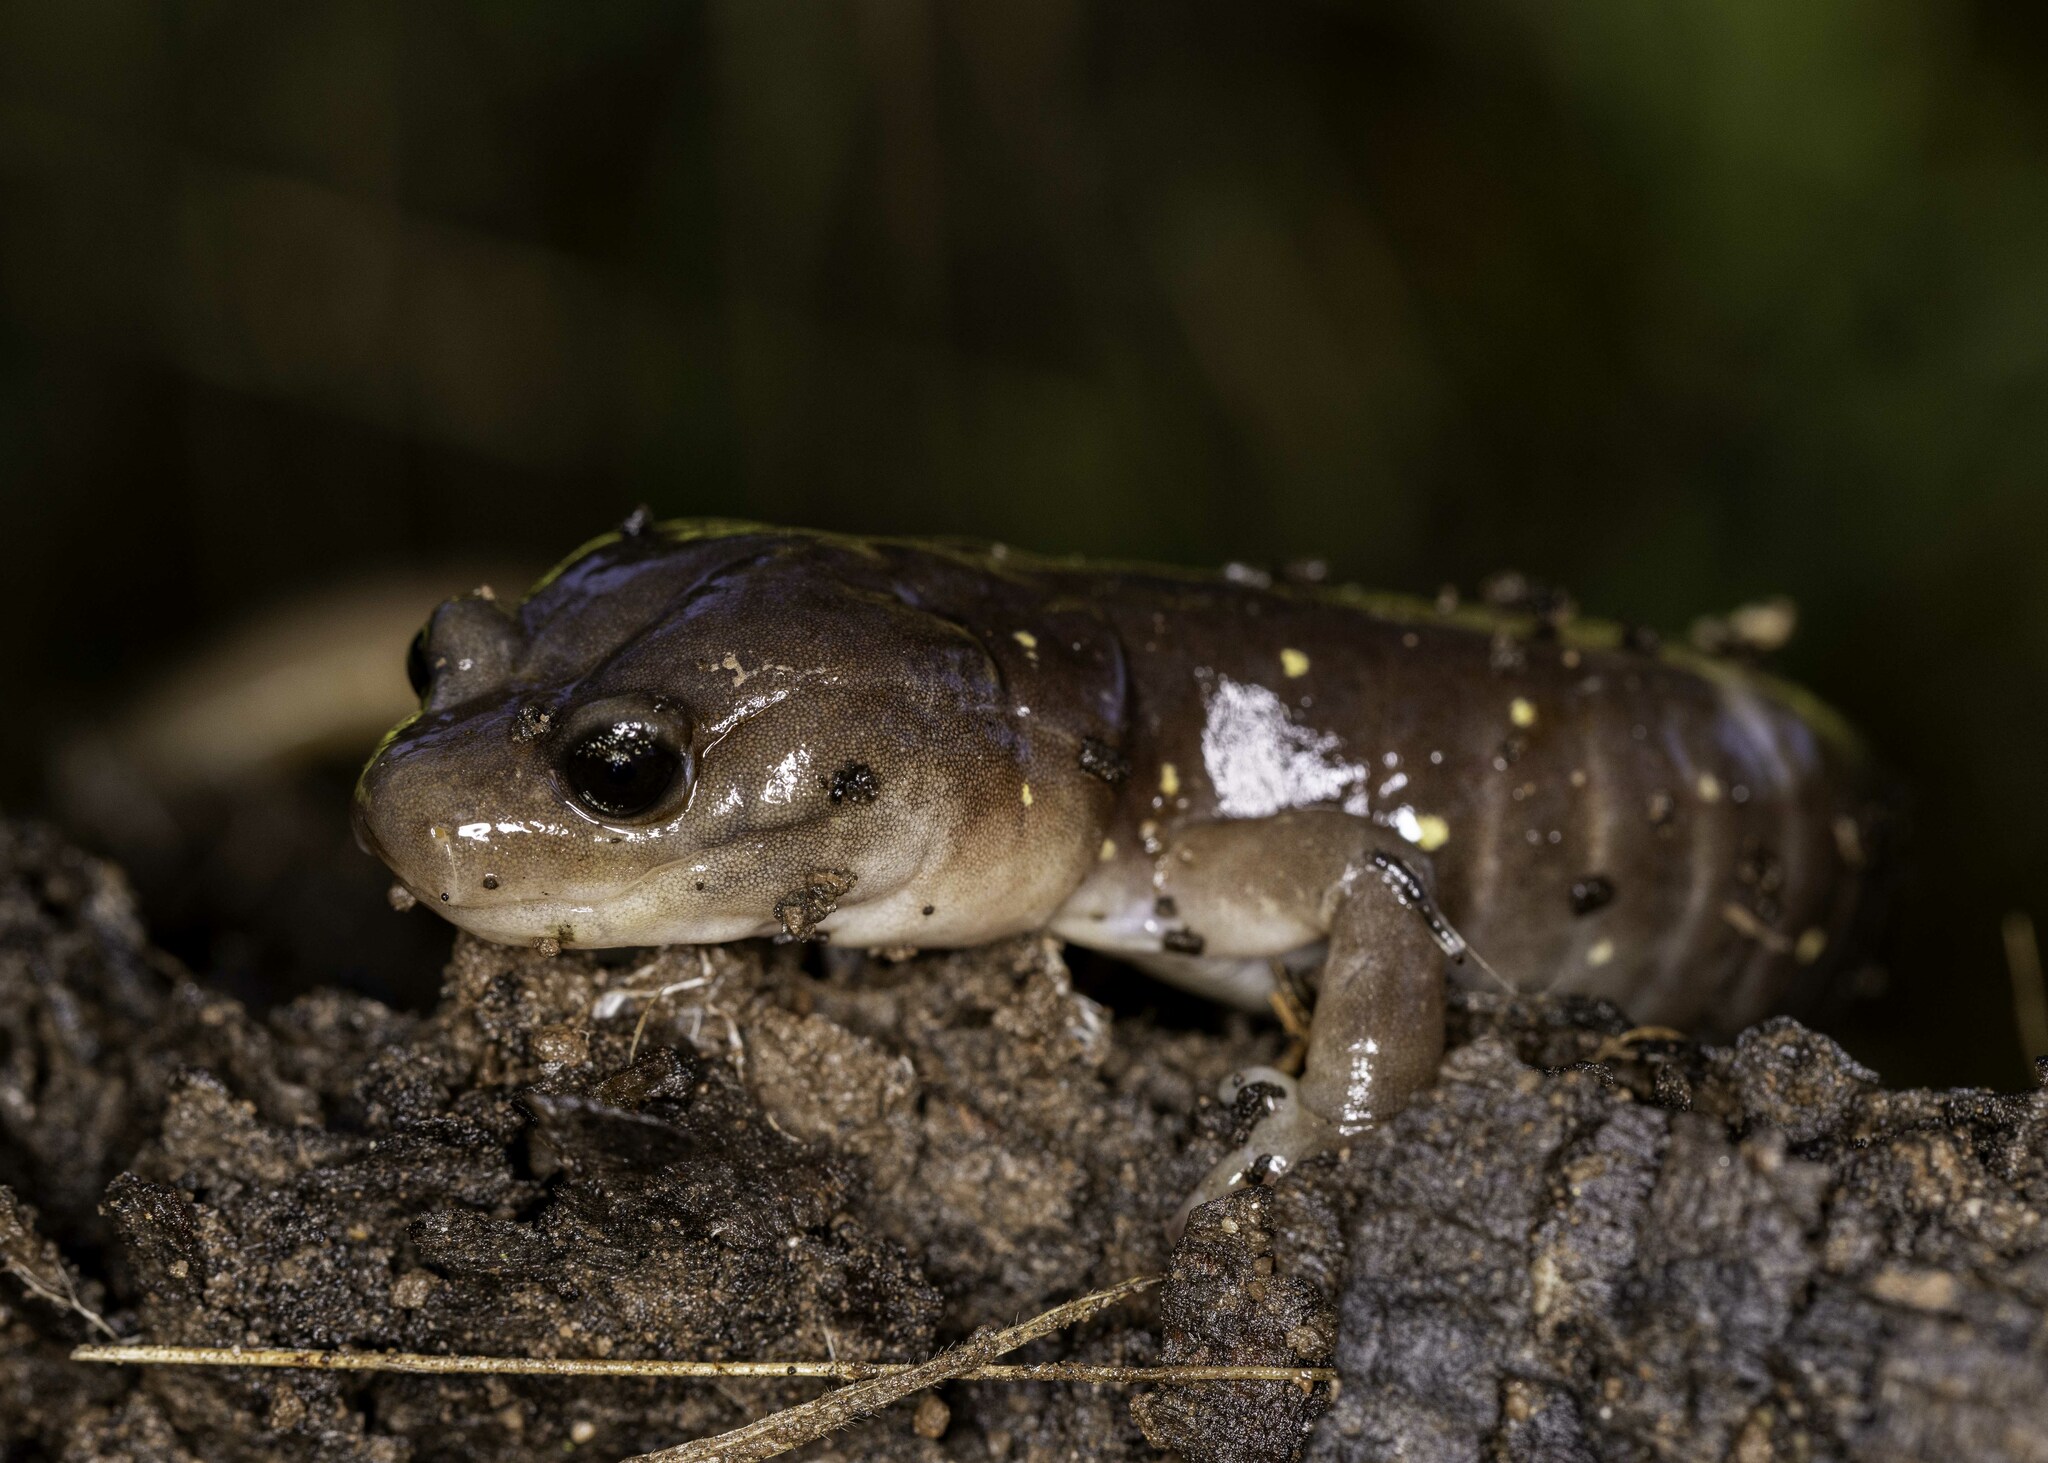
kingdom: Animalia
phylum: Chordata
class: Amphibia
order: Caudata
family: Plethodontidae
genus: Aneides
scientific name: Aneides lugubris
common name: Arboreal salamander
